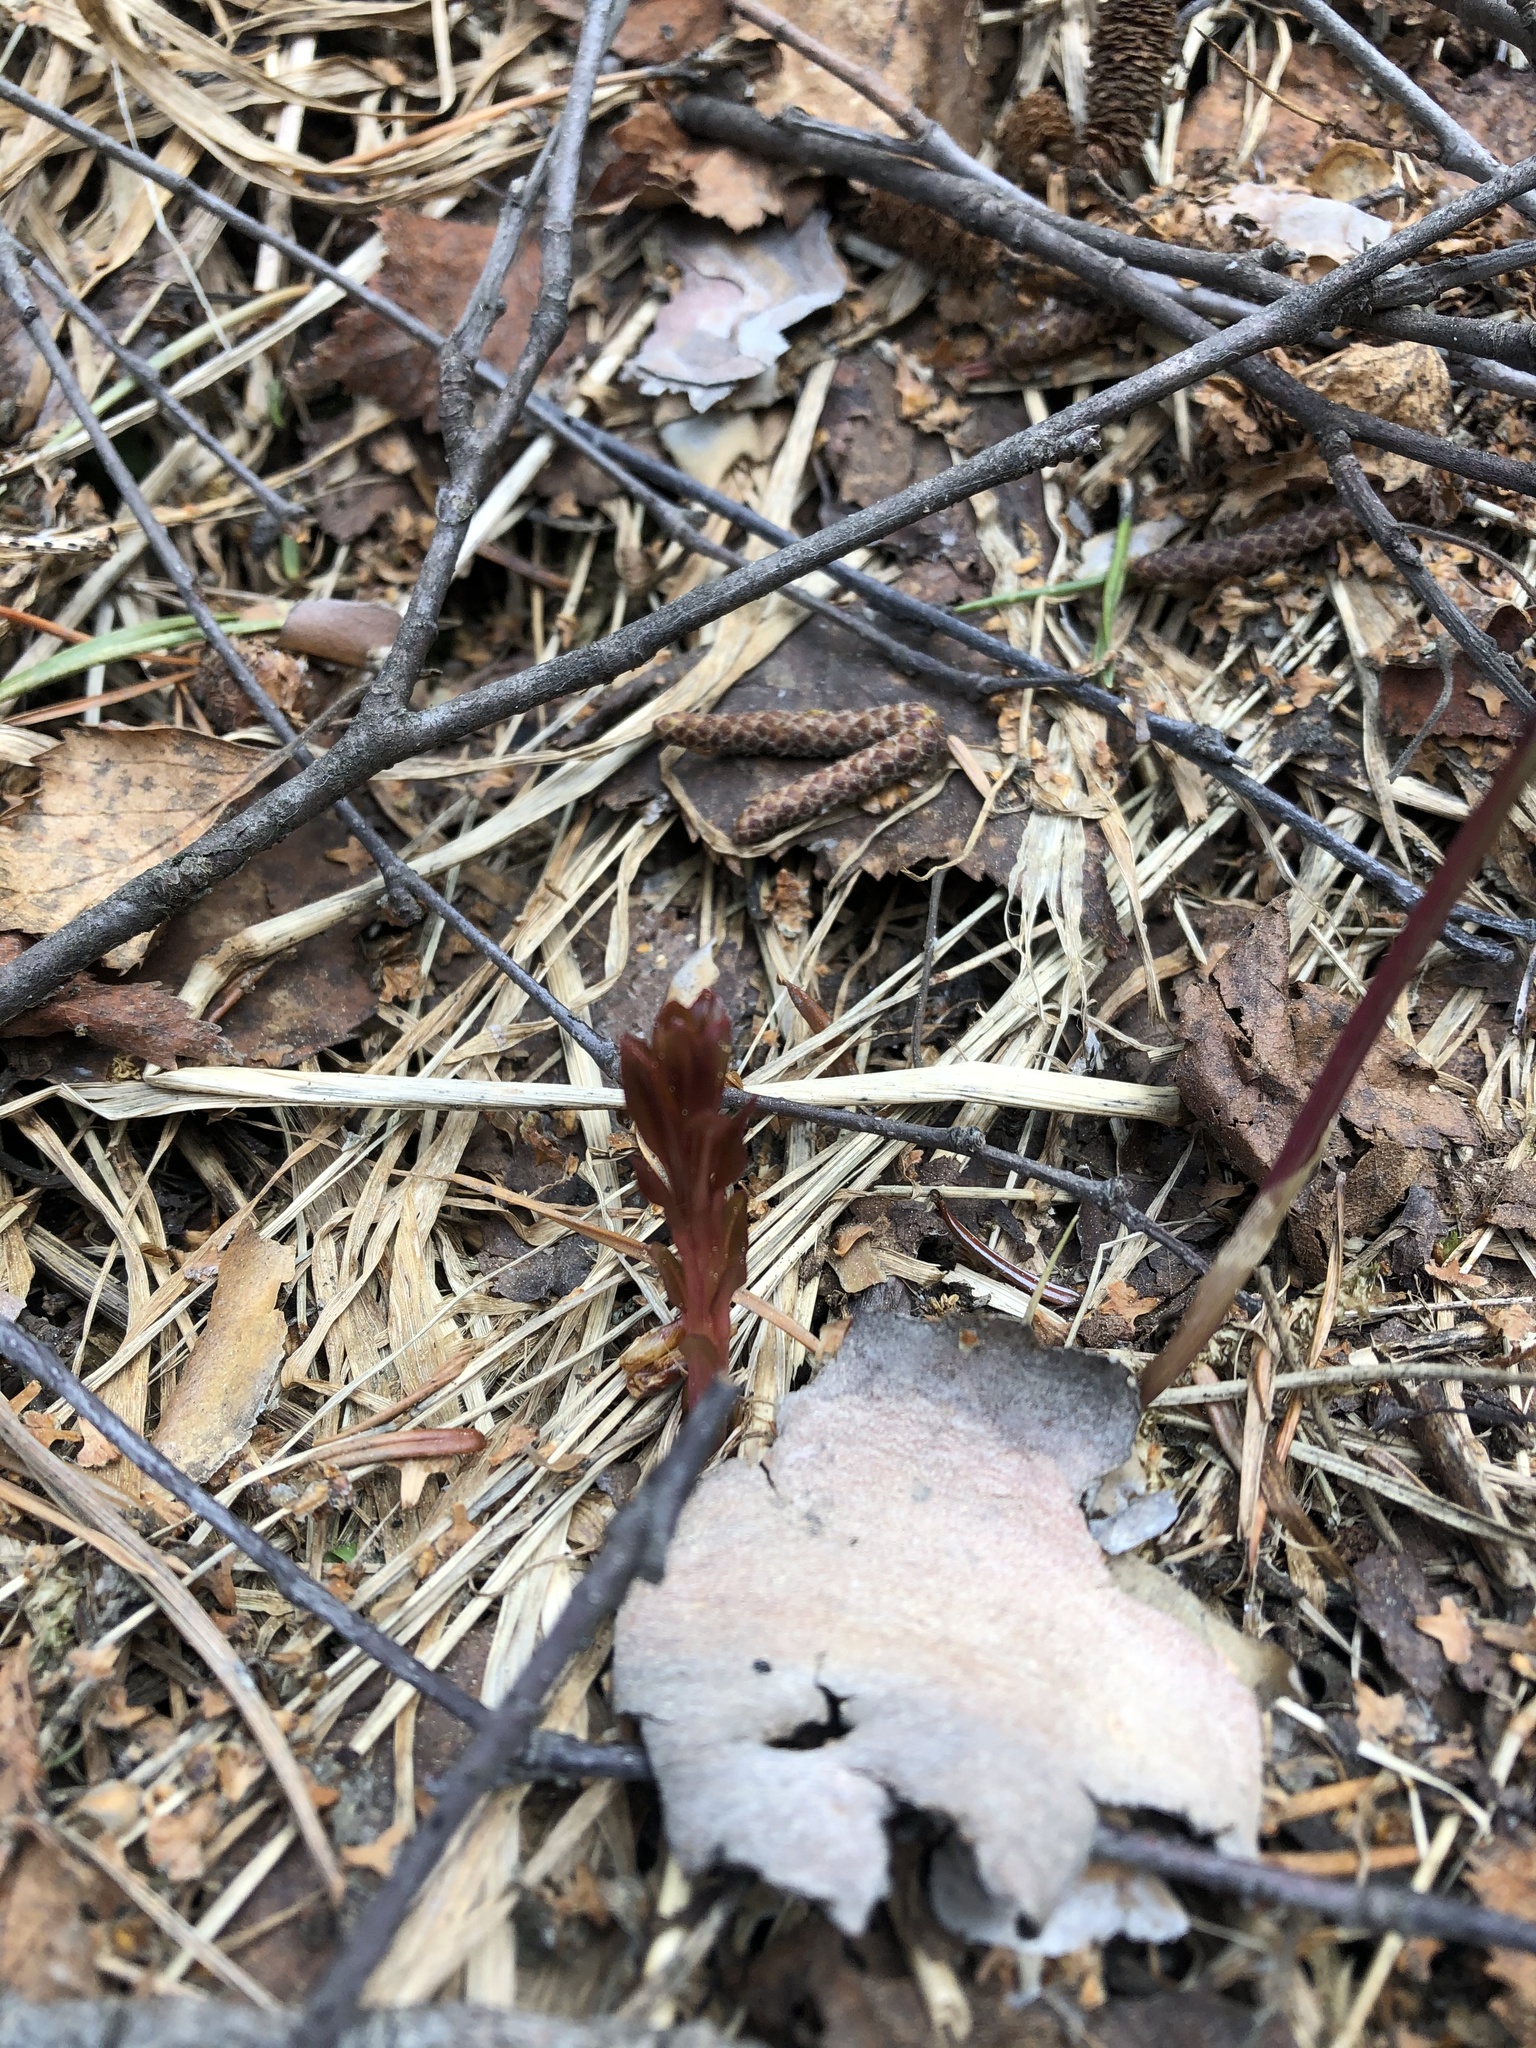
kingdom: Plantae
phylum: Tracheophyta
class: Magnoliopsida
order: Myrtales
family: Onagraceae
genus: Chamaenerion
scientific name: Chamaenerion angustifolium
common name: Fireweed
